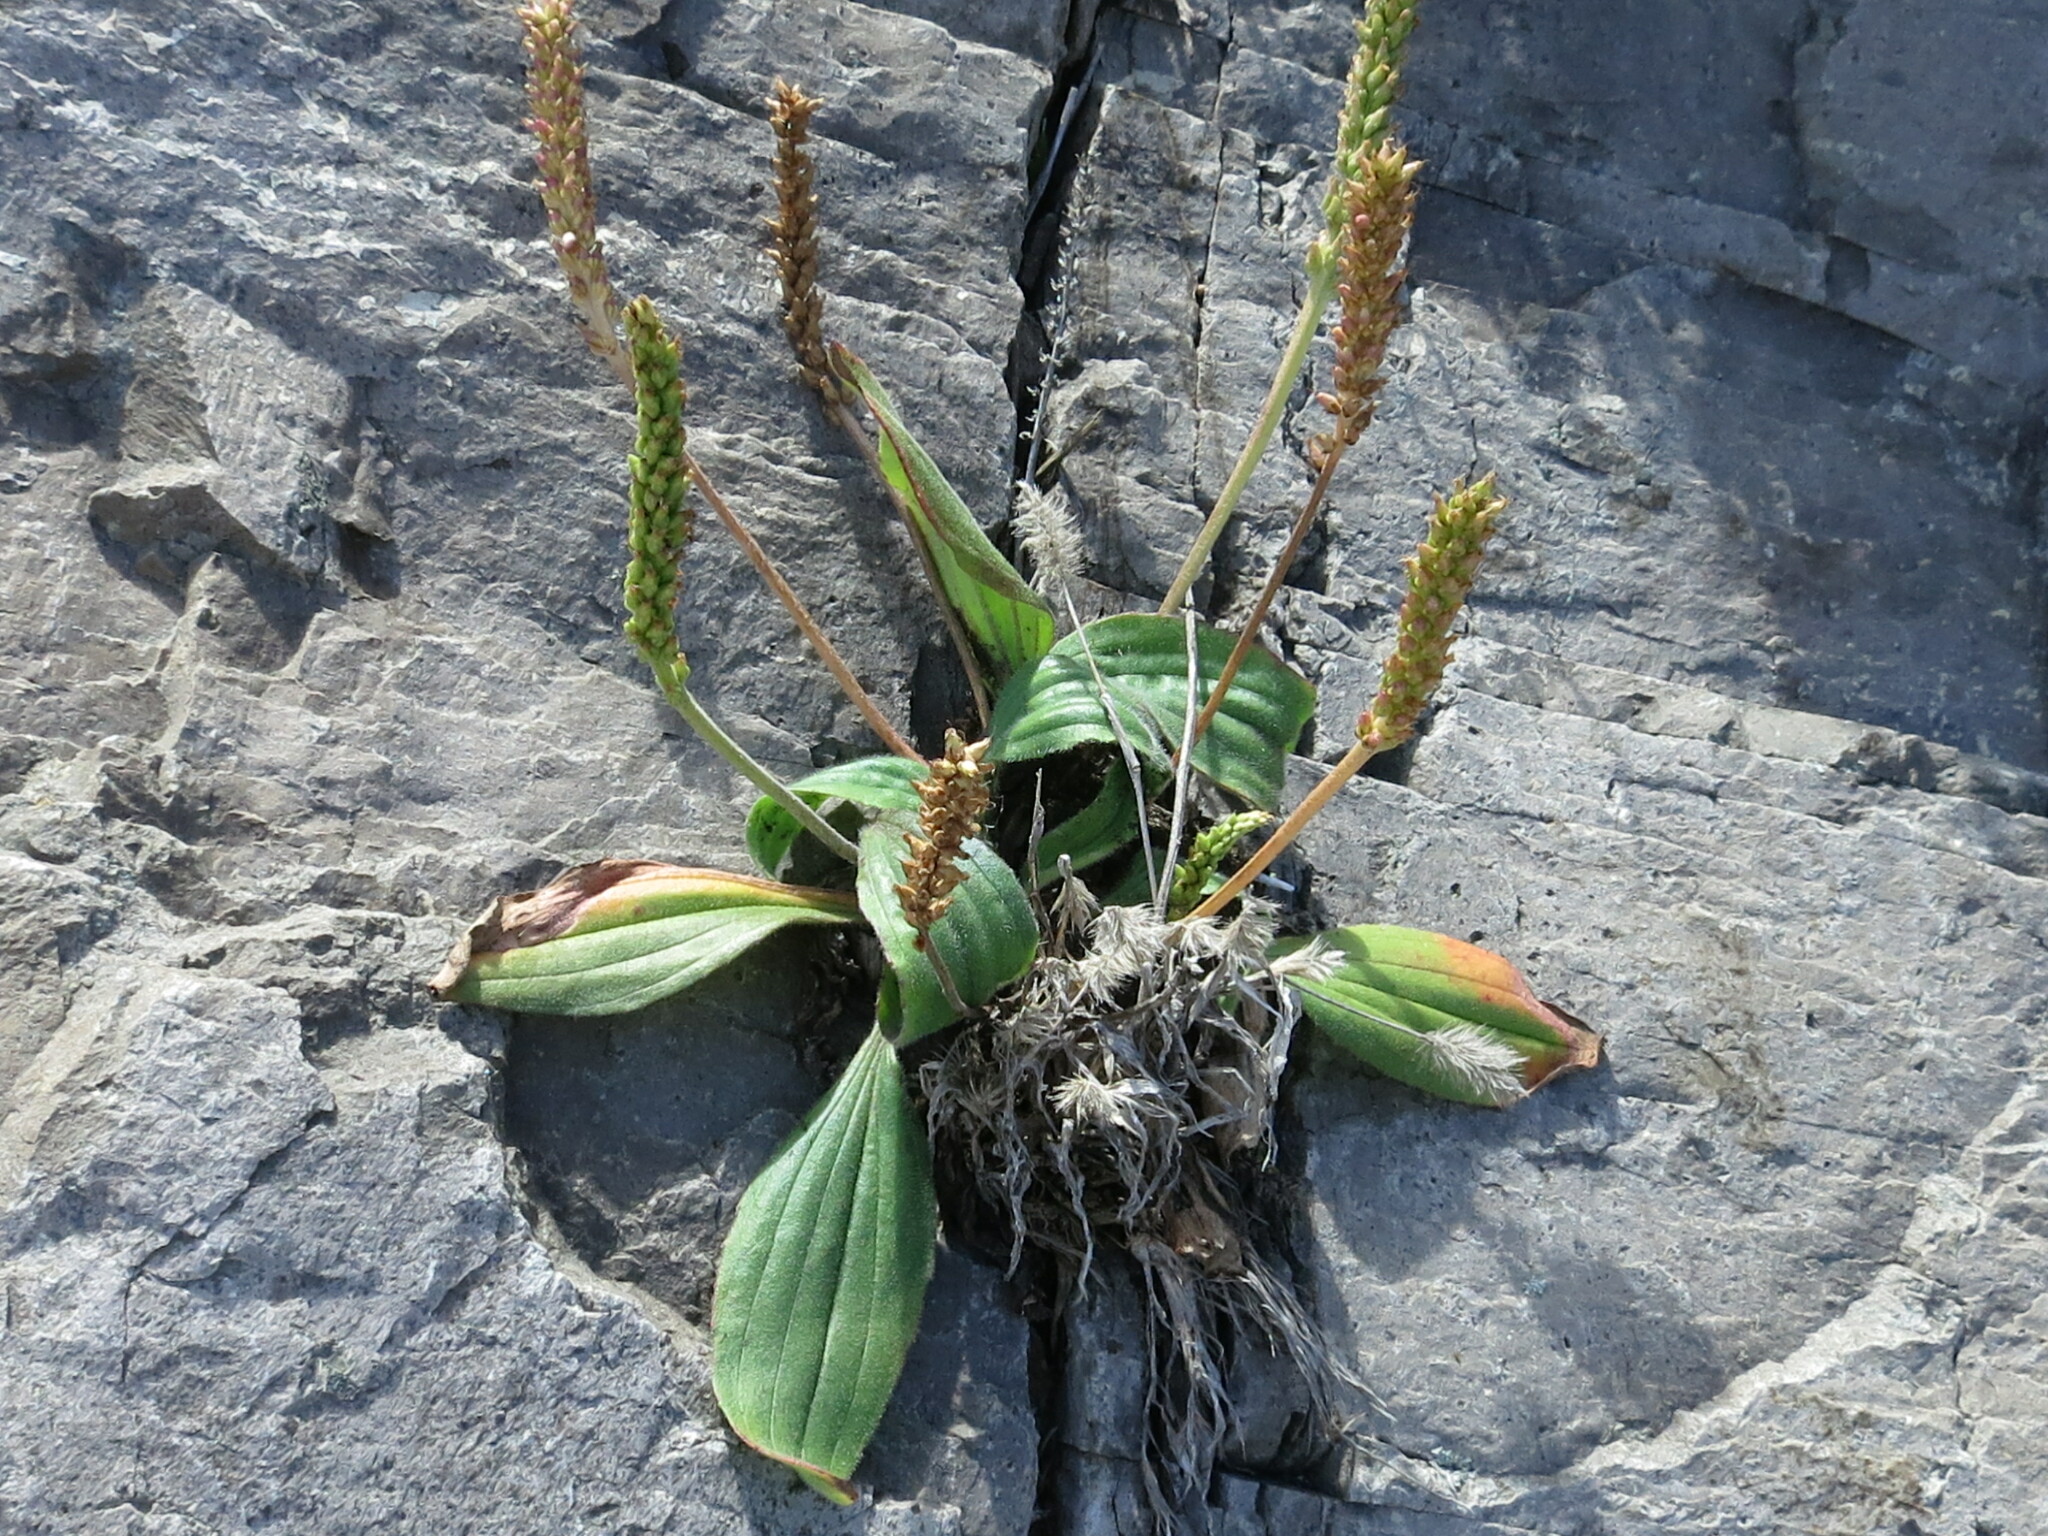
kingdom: Plantae
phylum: Tracheophyta
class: Magnoliopsida
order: Lamiales
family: Plantaginaceae
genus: Plantago
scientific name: Plantago camtschatica
